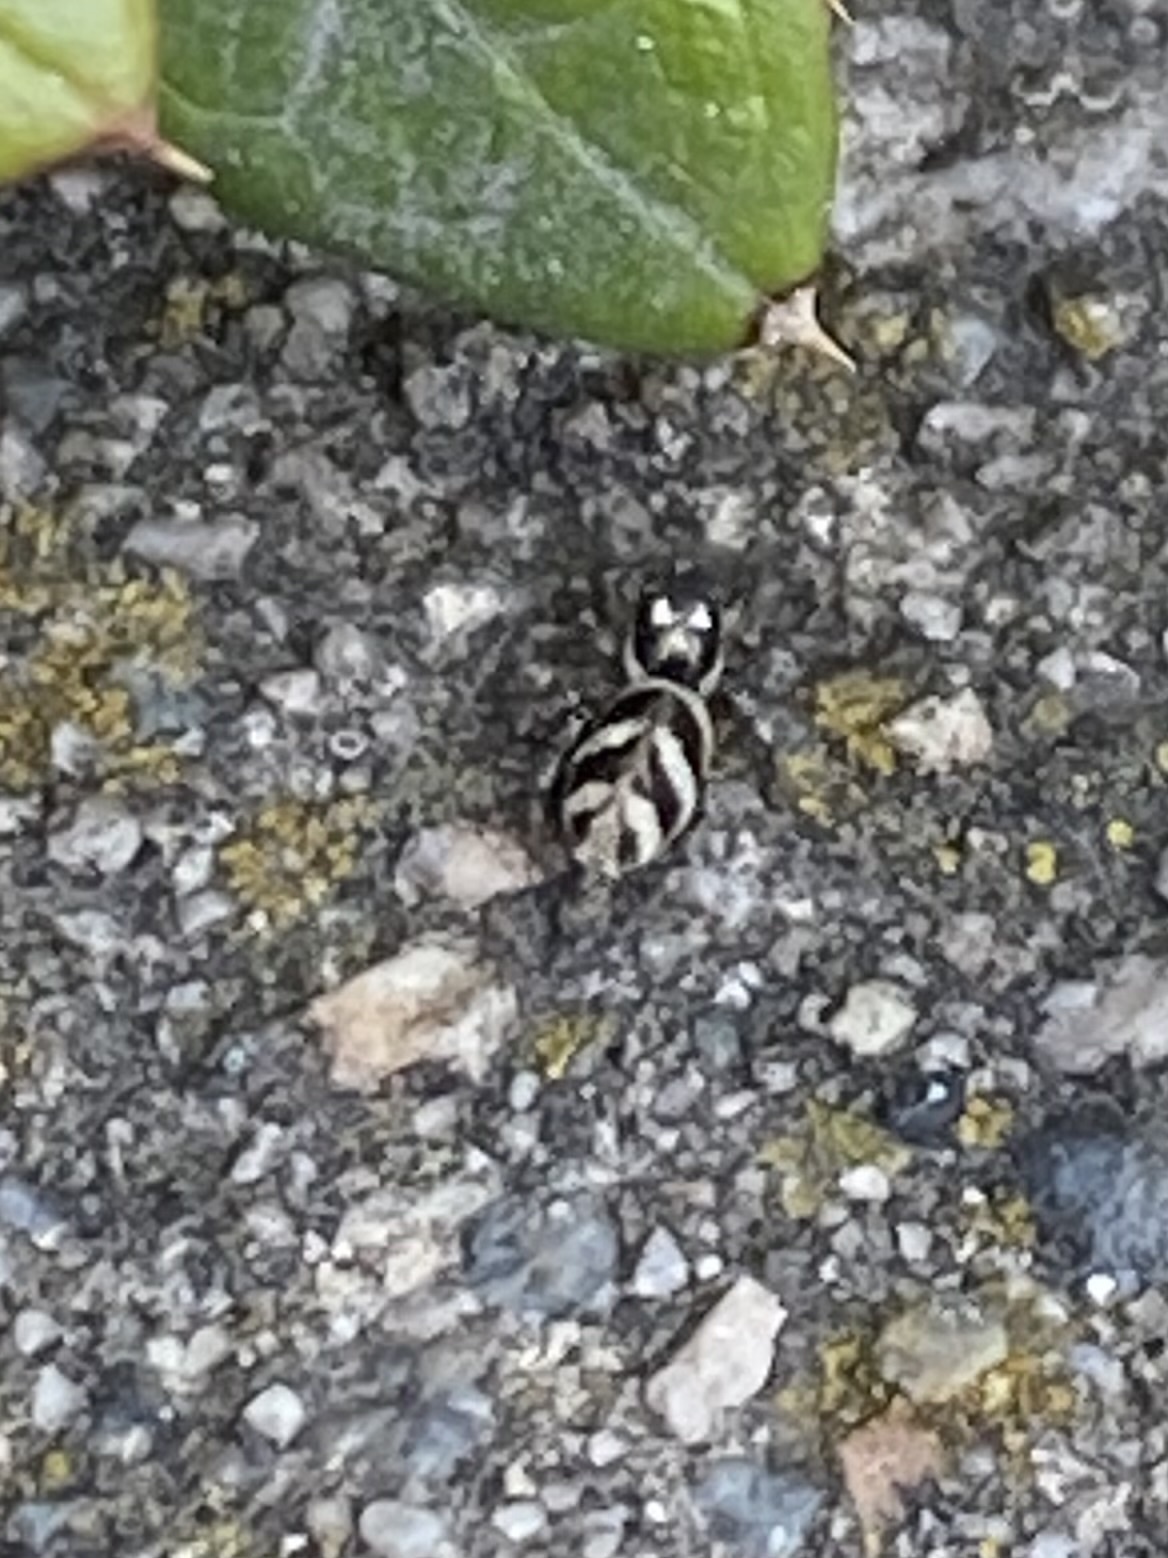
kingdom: Animalia
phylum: Arthropoda
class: Arachnida
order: Araneae
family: Salticidae
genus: Salticus
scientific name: Salticus scenicus
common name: Zebra jumper
